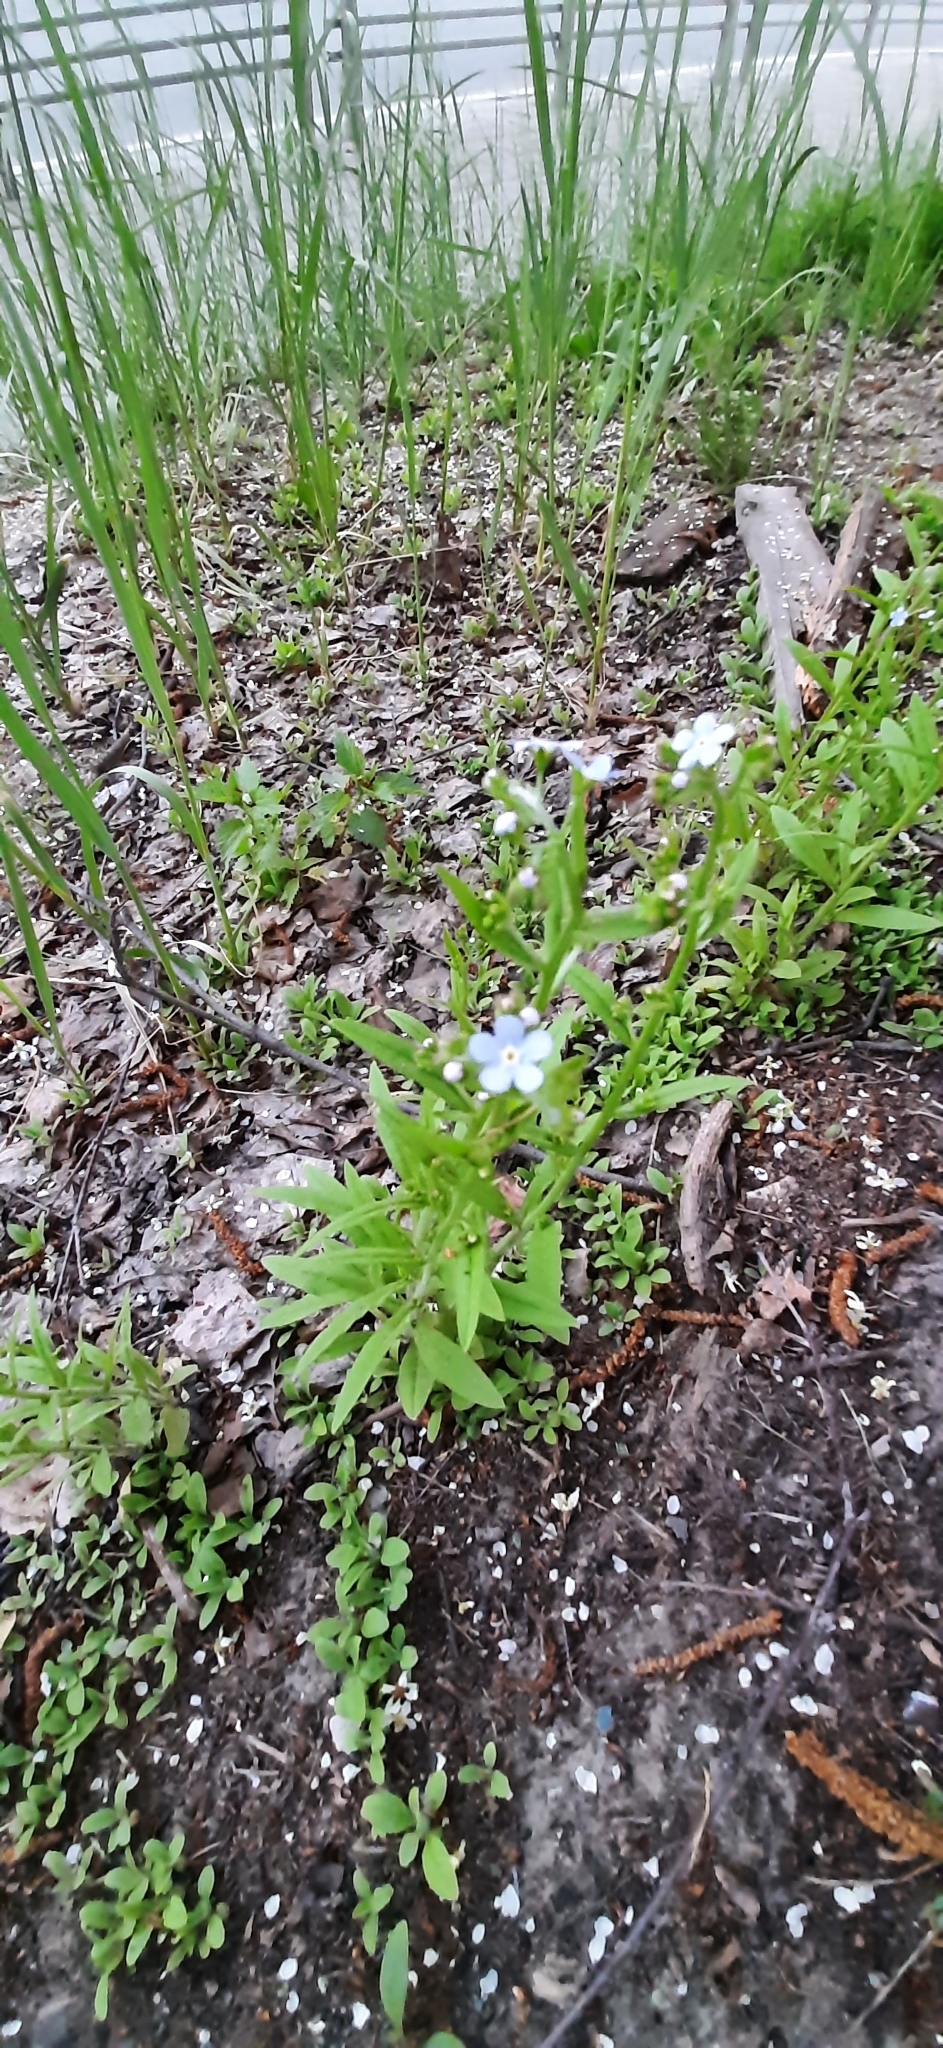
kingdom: Plantae
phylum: Tracheophyta
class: Magnoliopsida
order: Boraginales
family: Boraginaceae
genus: Hackelia
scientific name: Hackelia deflexa
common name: Nodding stickseed
